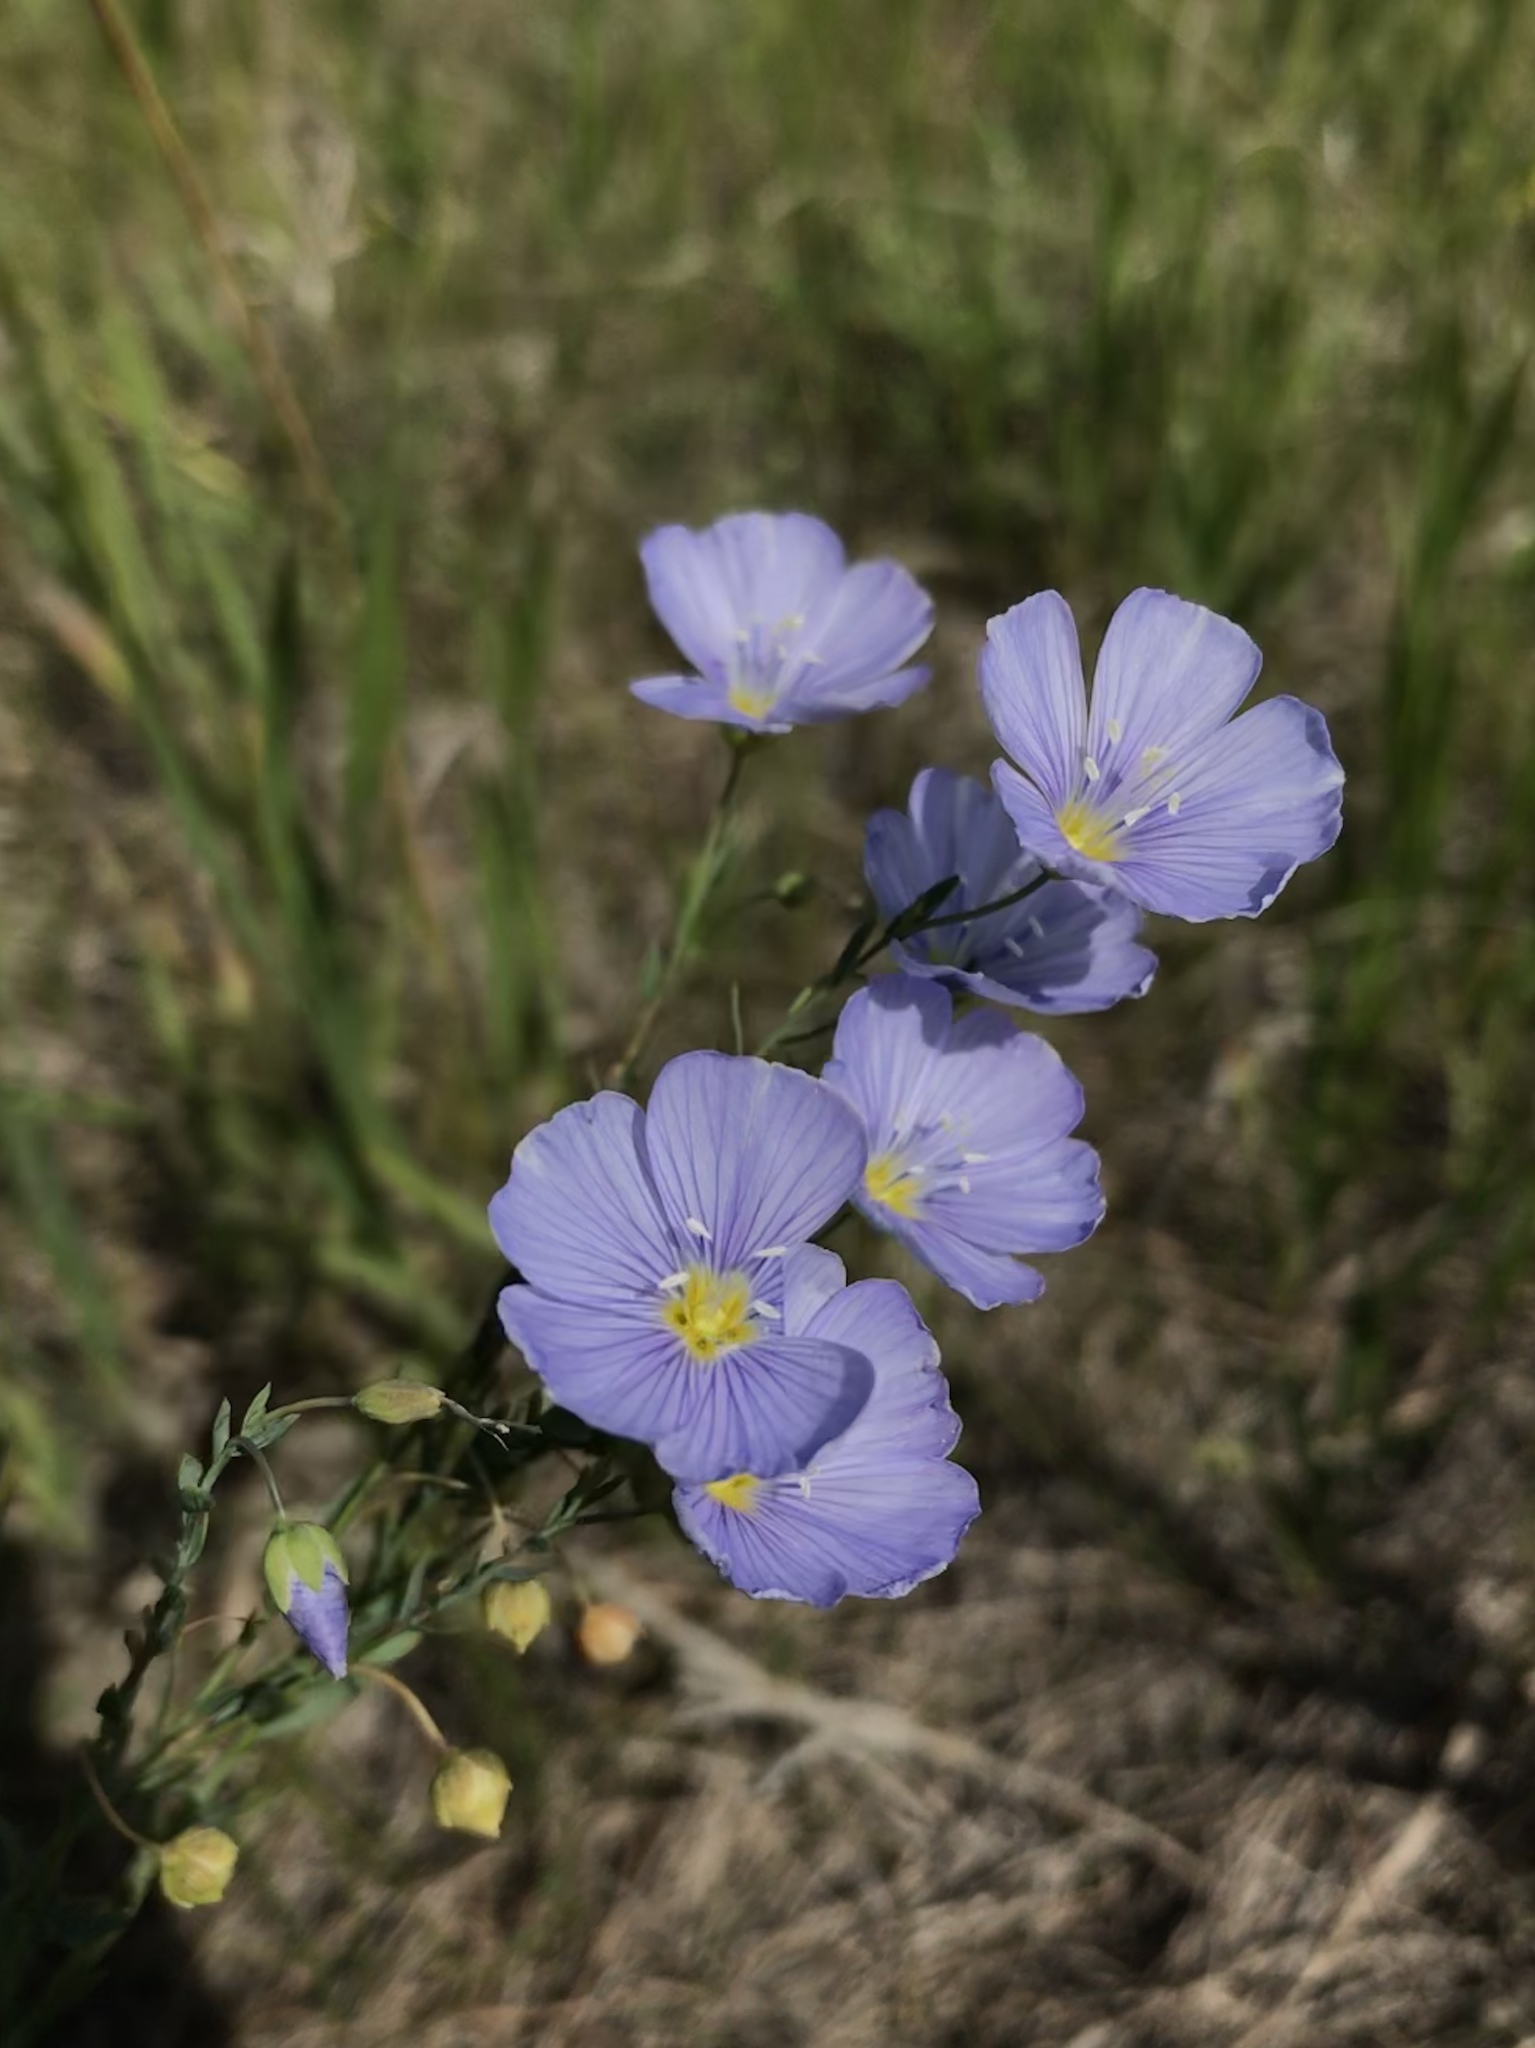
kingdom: Plantae
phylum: Tracheophyta
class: Magnoliopsida
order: Malpighiales
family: Linaceae
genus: Linum
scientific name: Linum lewisii
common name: Prairie flax
